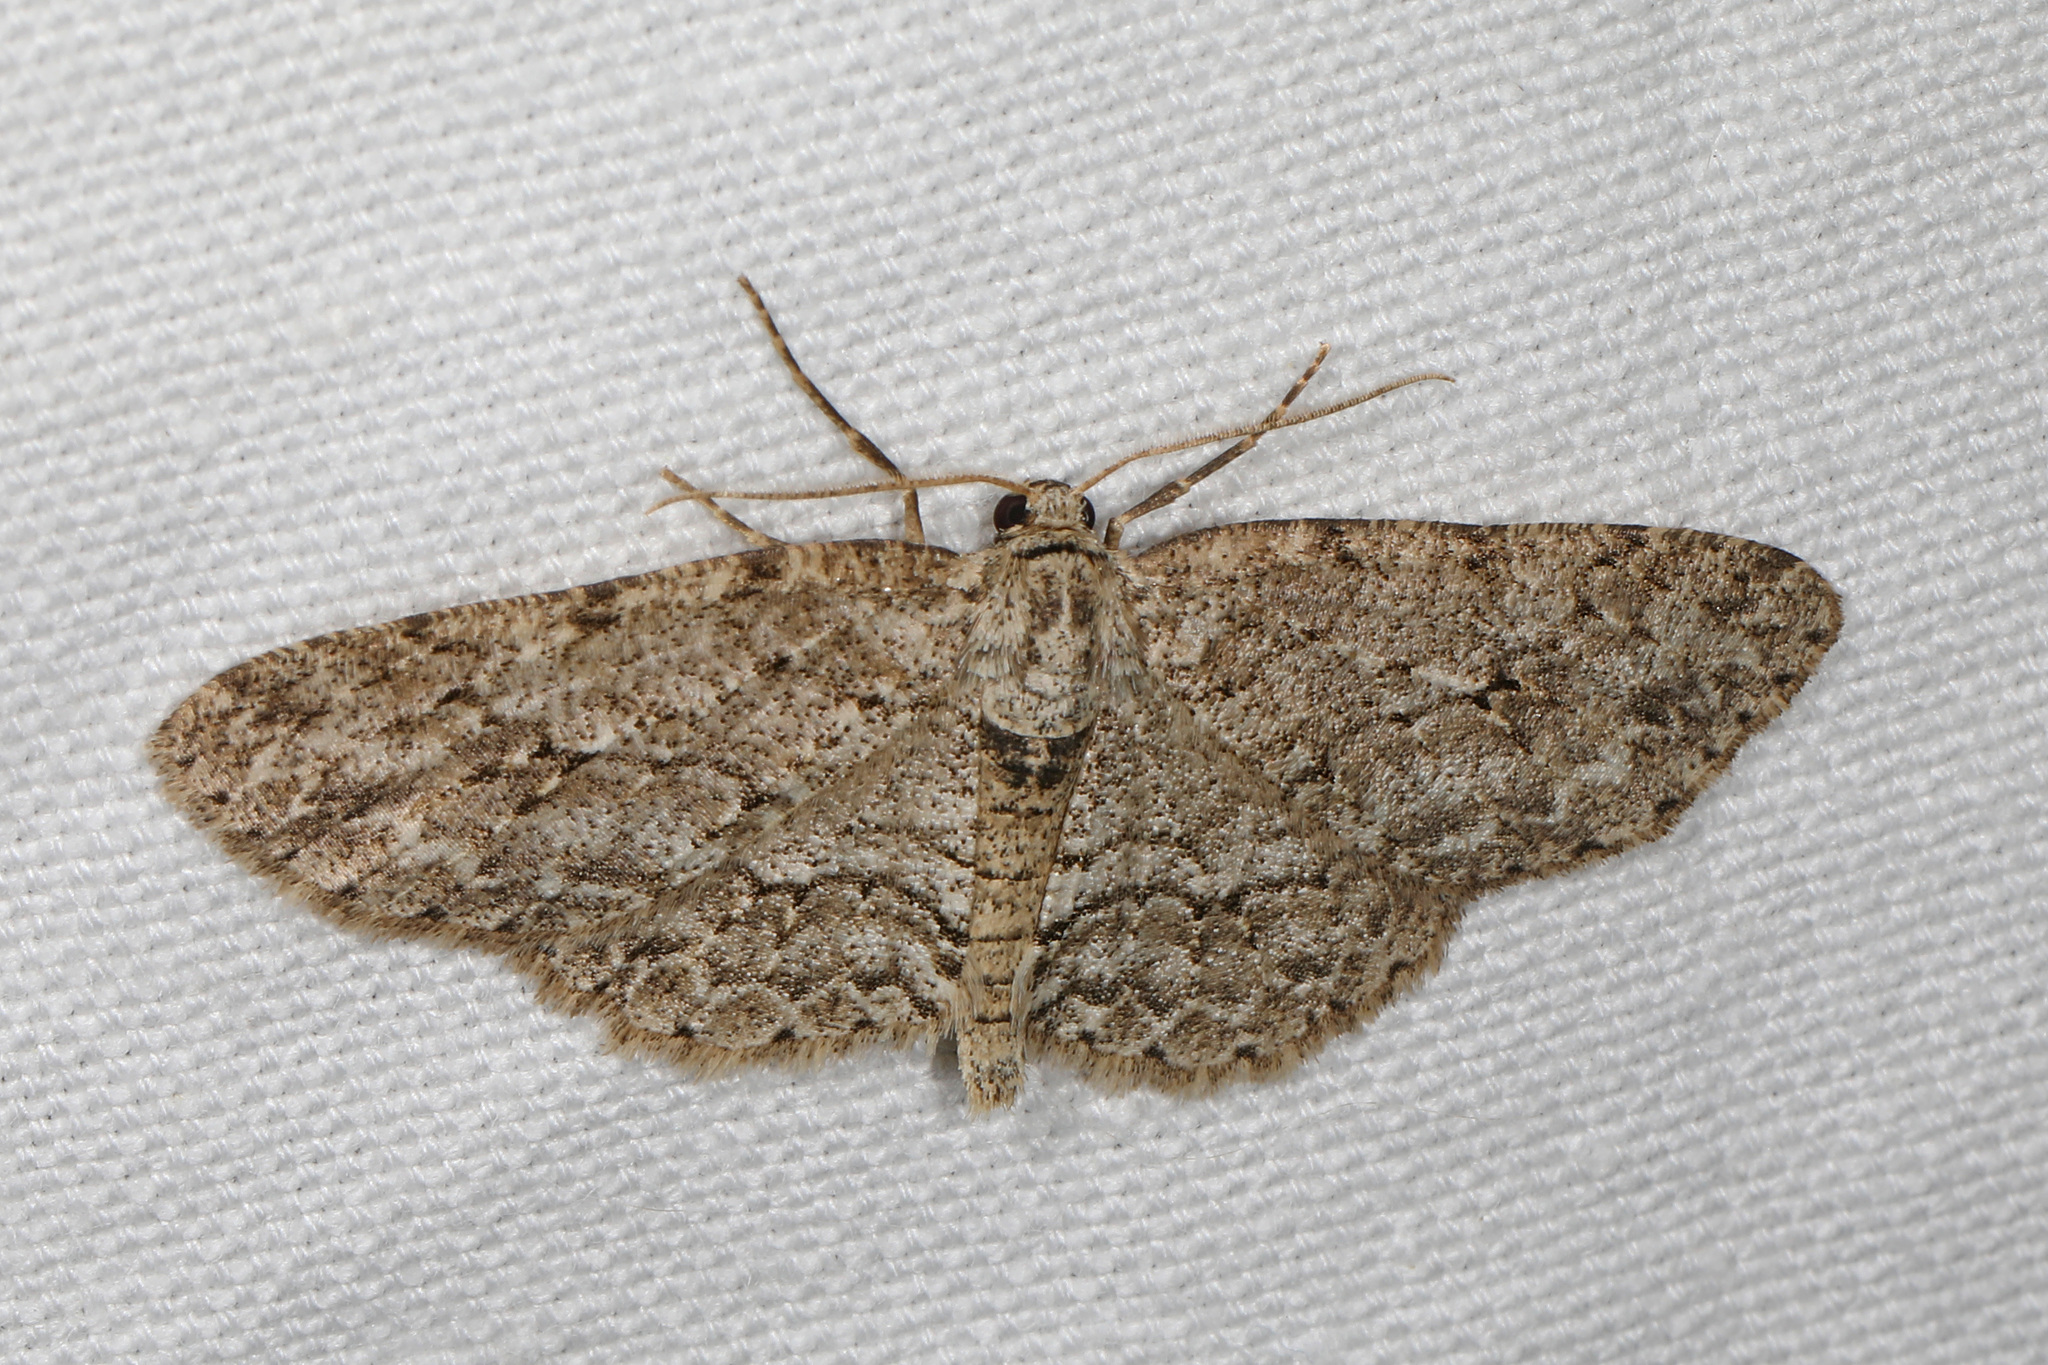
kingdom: Animalia
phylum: Arthropoda
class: Insecta
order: Lepidoptera
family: Geometridae
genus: Ectropis
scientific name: Ectropis crepuscularia
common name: Engrailed
